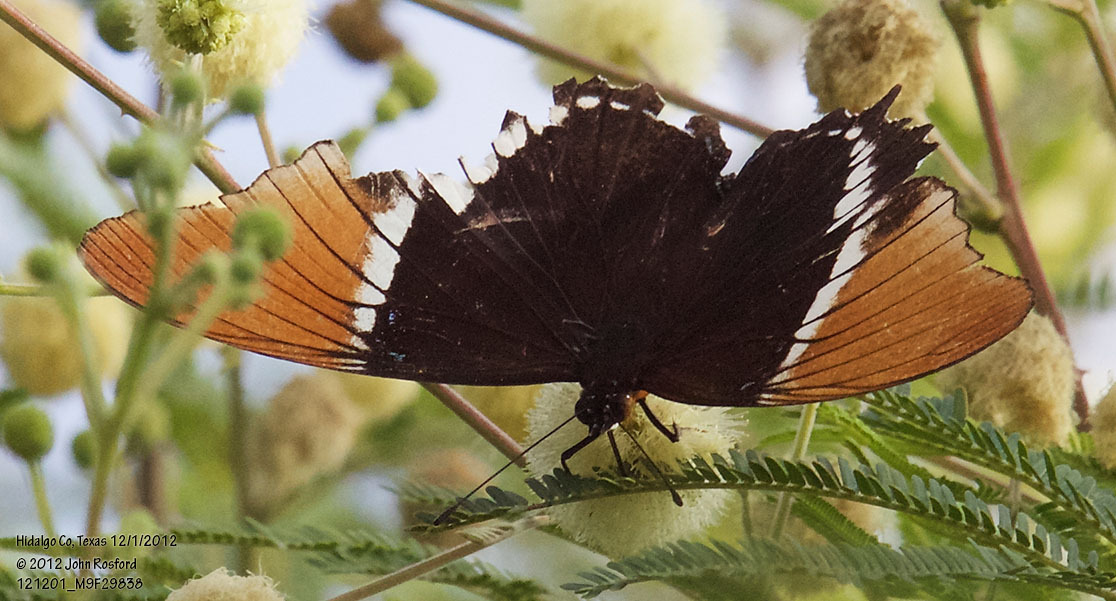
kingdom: Animalia
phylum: Arthropoda
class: Insecta
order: Lepidoptera
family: Nymphalidae
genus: Siproeta
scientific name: Siproeta epaphus
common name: Rusty-tipped page
